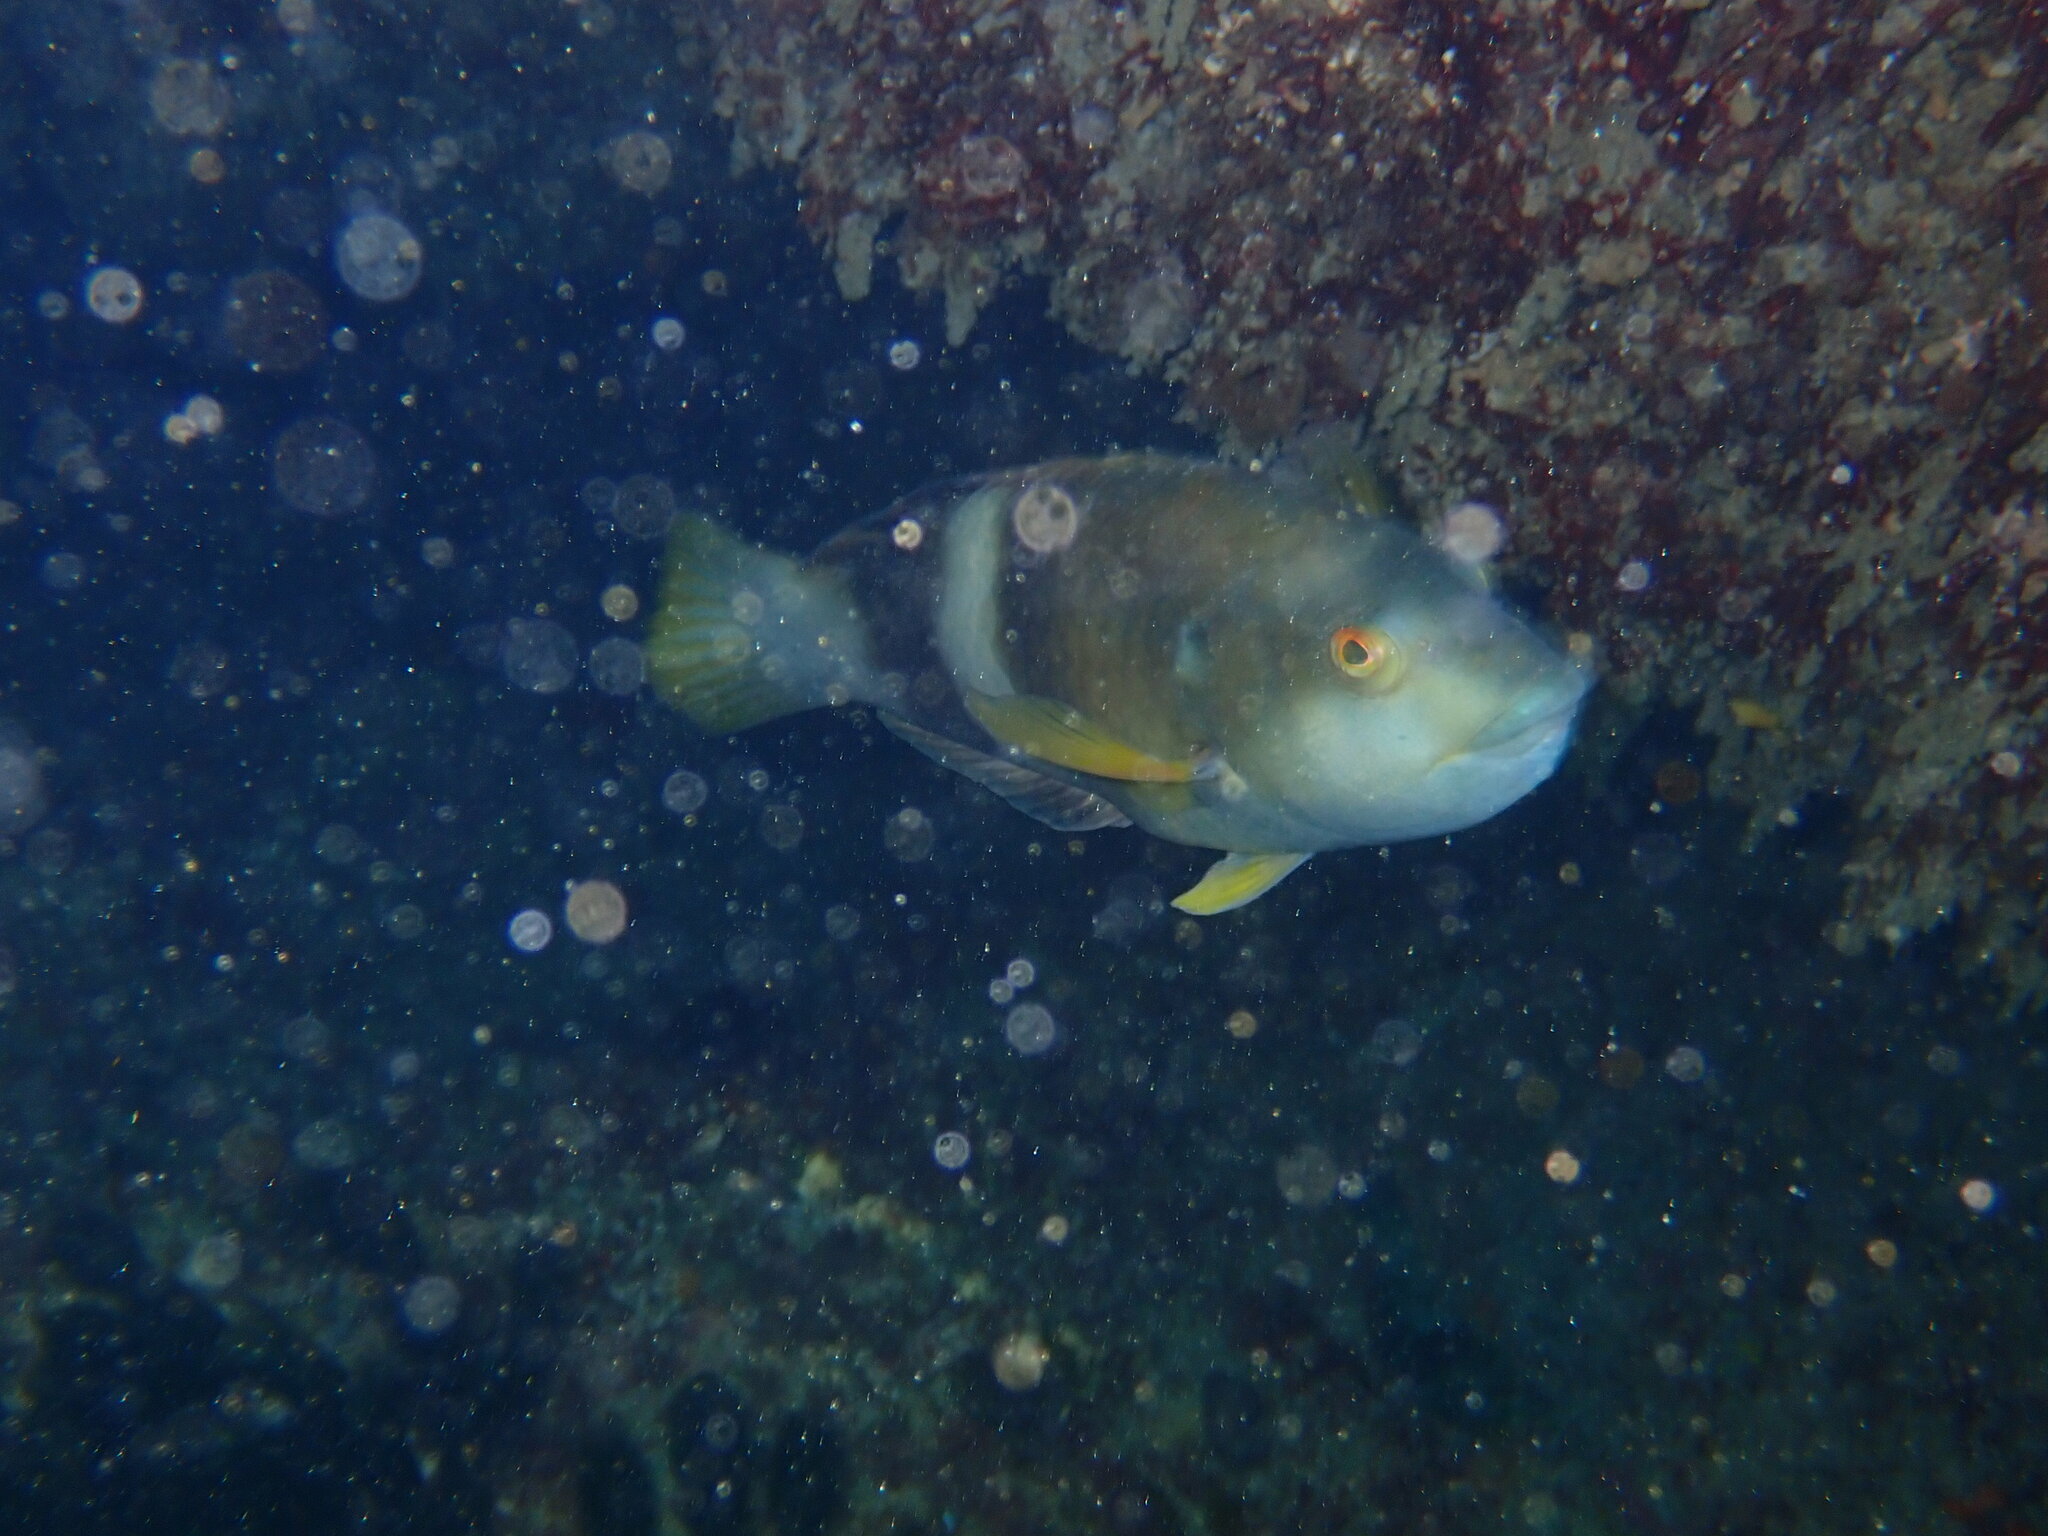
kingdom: Animalia
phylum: Chordata
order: Perciformes
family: Labridae
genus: Notolabrus
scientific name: Notolabrus tetricus
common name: Blue-throated parrotfish
